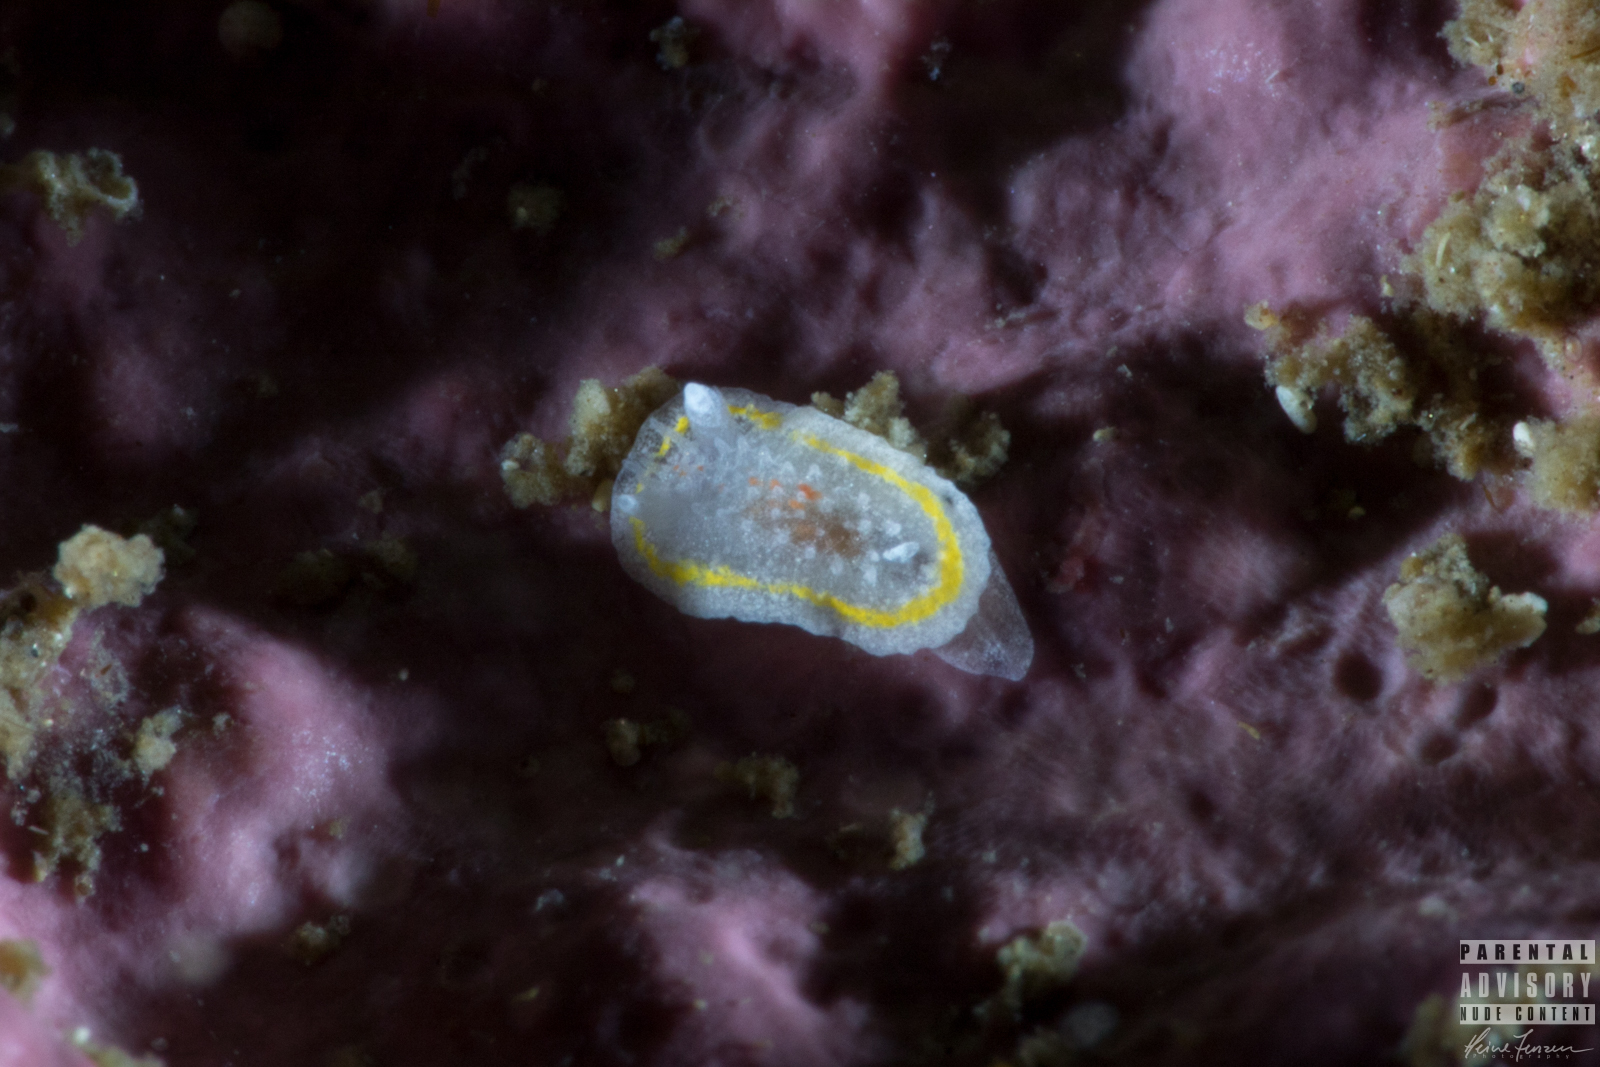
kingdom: Animalia
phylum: Mollusca
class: Gastropoda
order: Nudibranchia
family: Calycidorididae
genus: Diaphorodoris
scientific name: Diaphorodoris luteocincta
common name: Fried egg nudibranch
